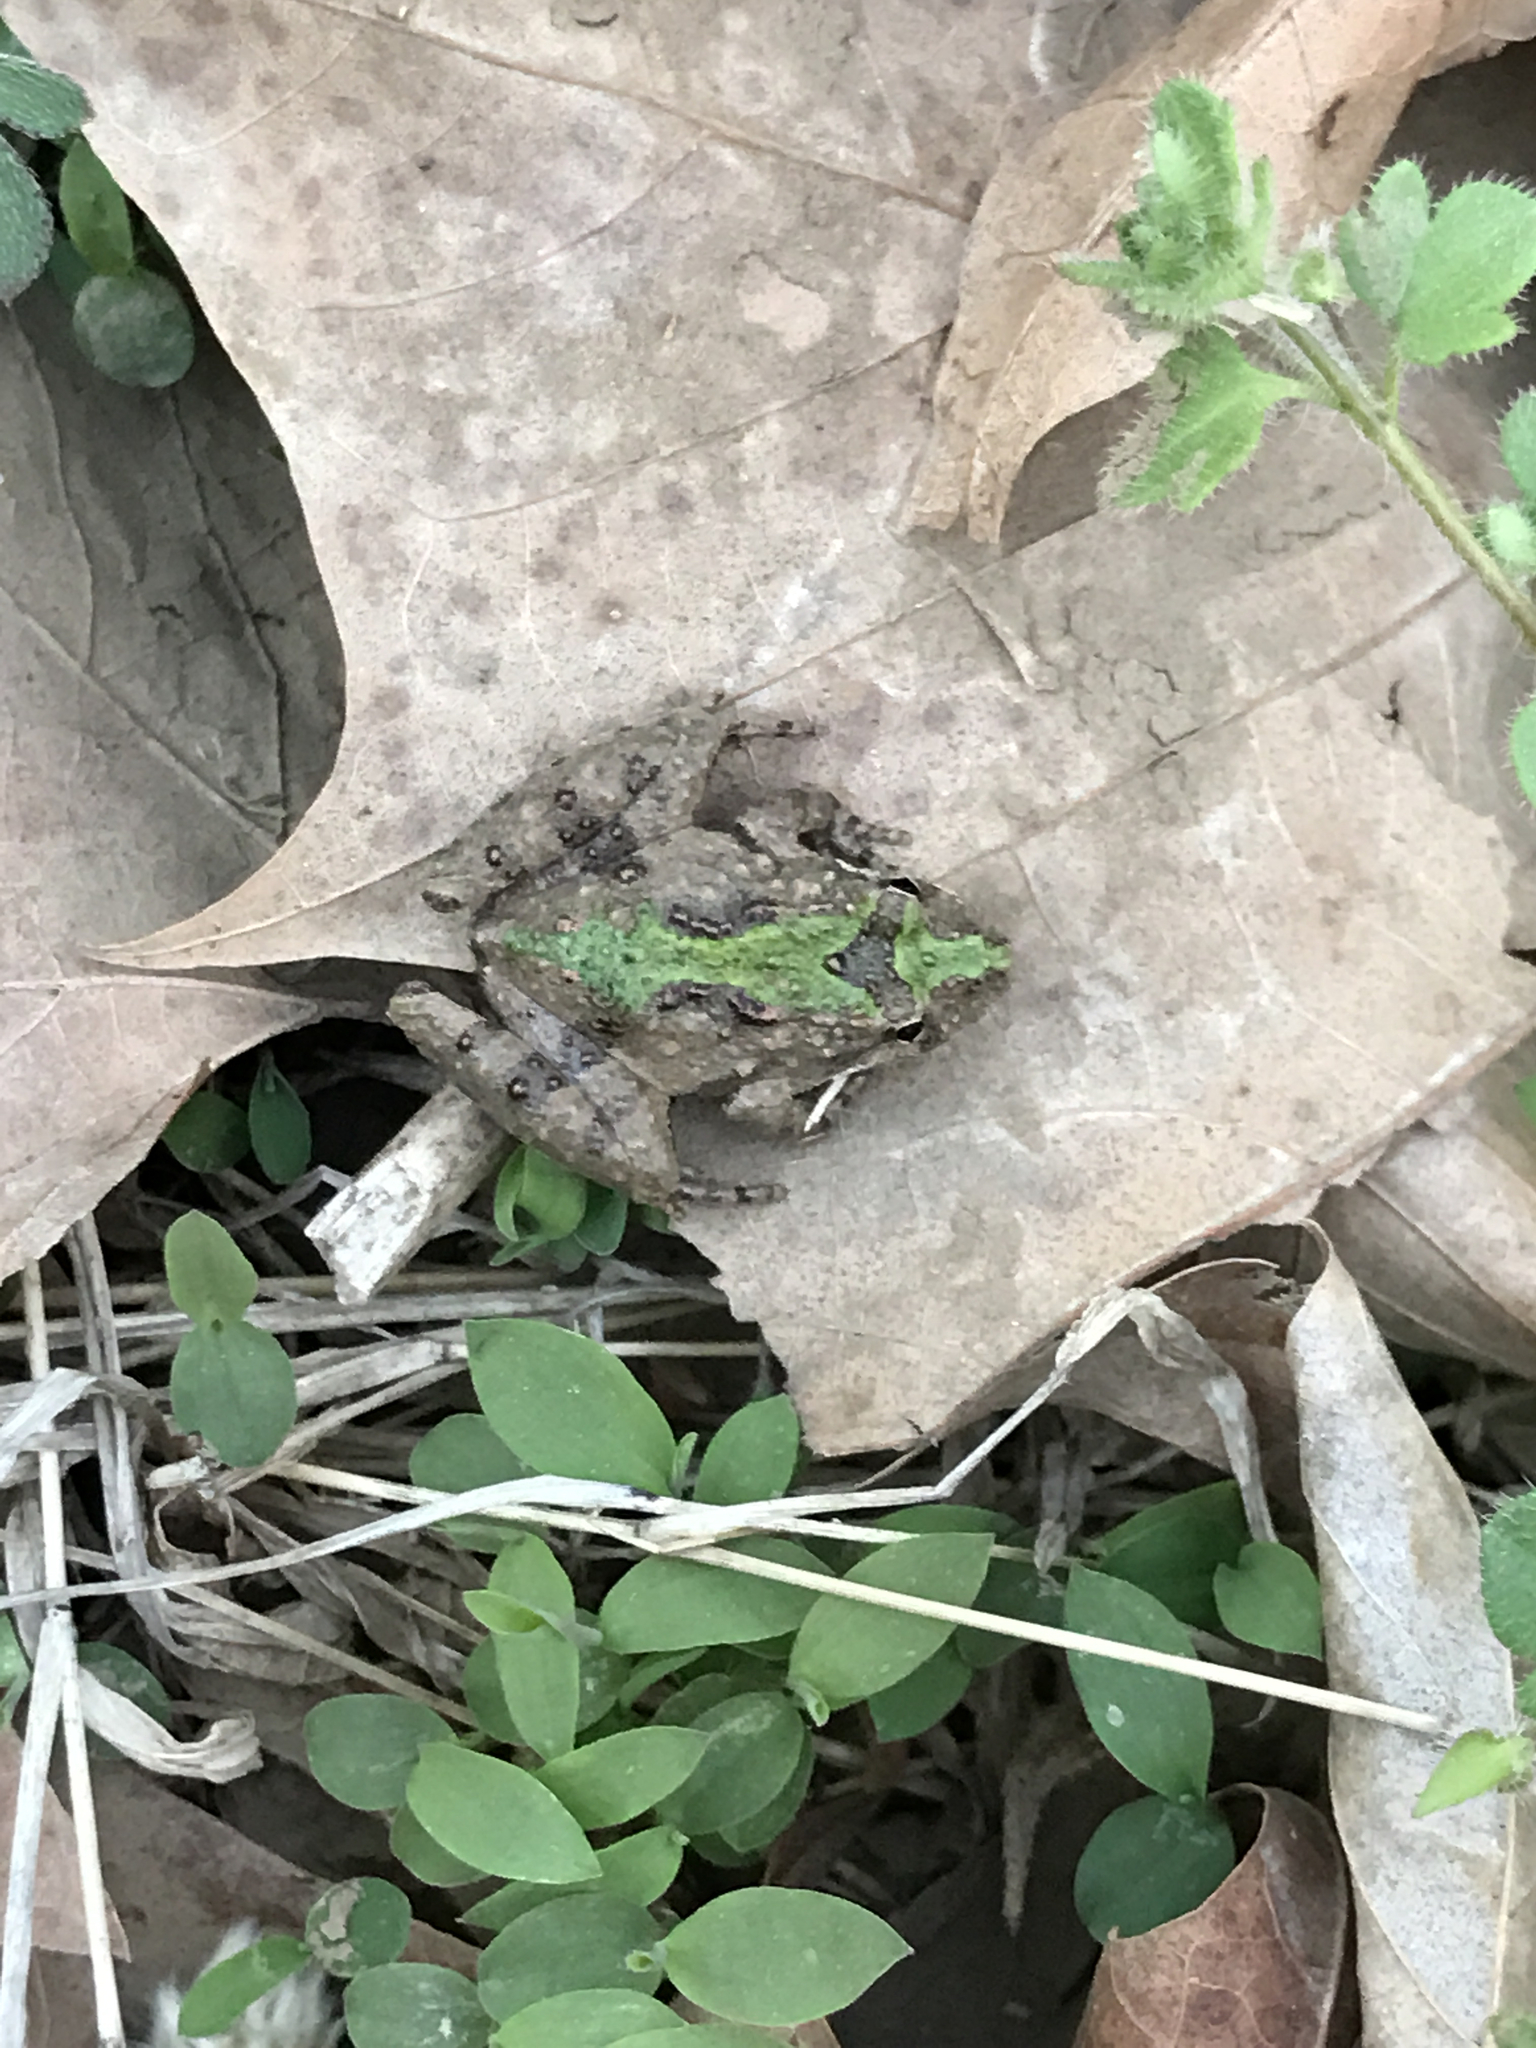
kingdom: Animalia
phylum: Chordata
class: Amphibia
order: Anura
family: Hylidae
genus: Acris
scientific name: Acris crepitans
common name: Northern cricket frog
